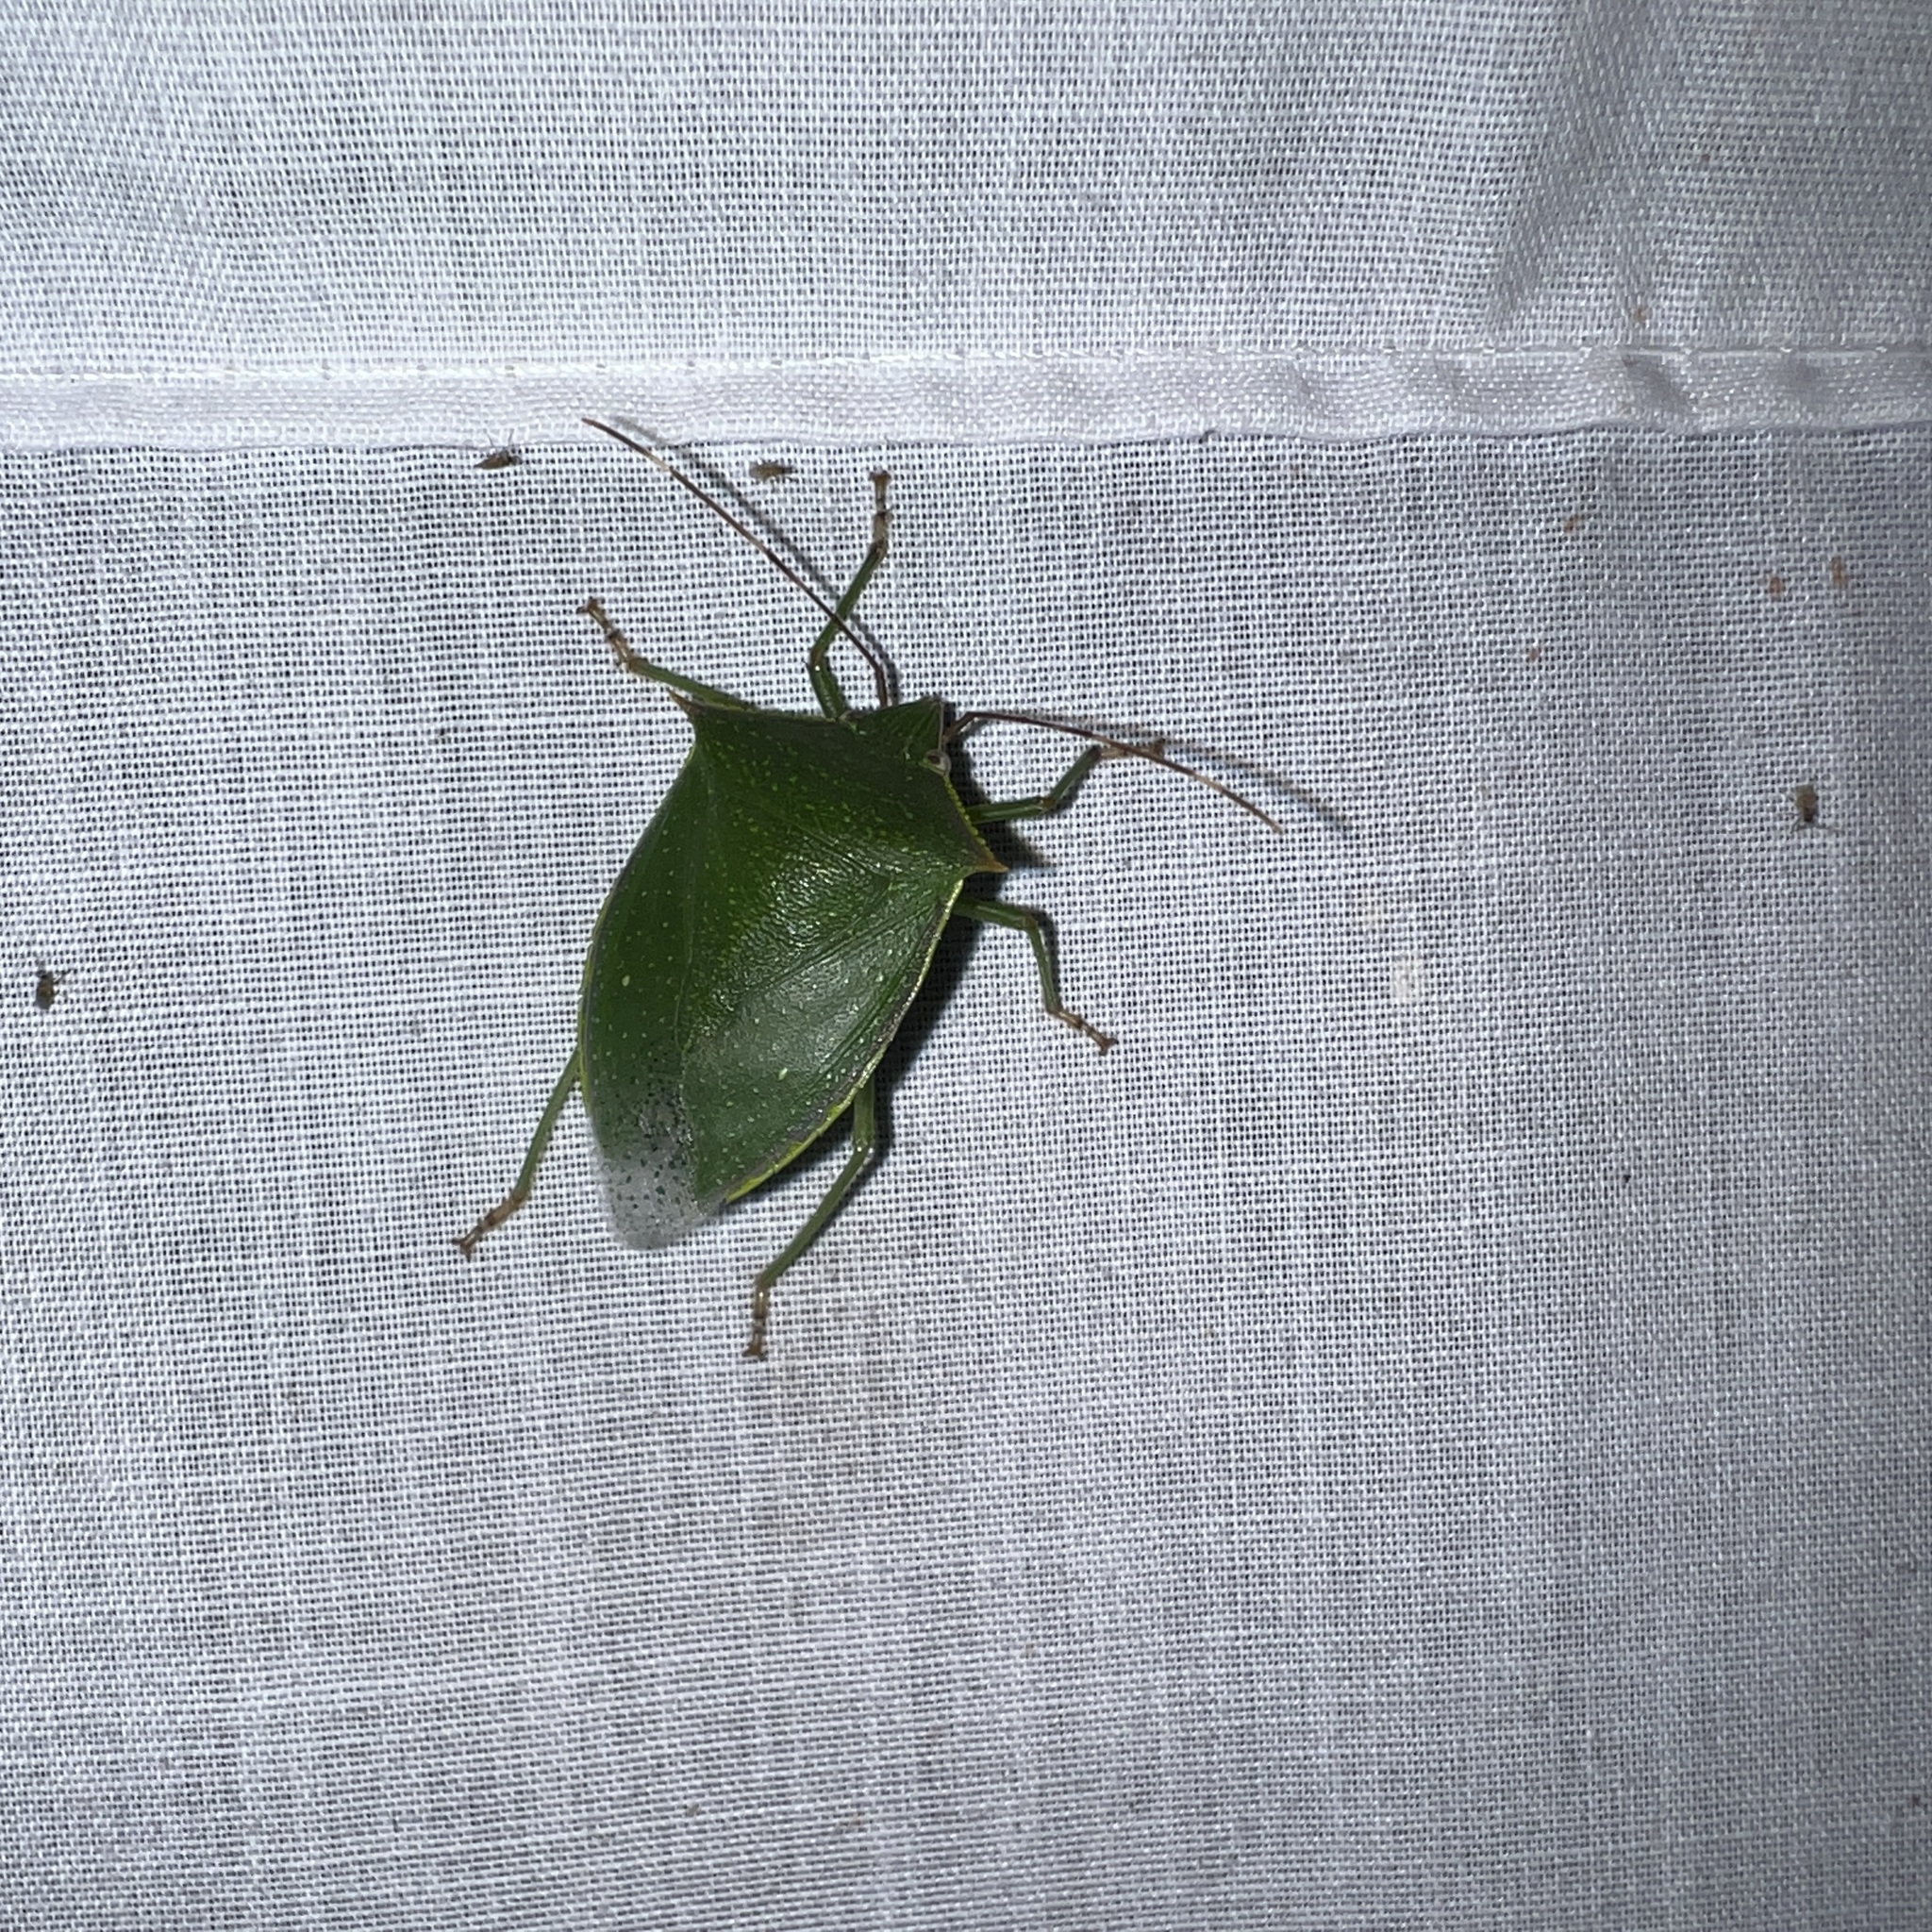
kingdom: Animalia
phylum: Arthropoda
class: Insecta
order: Hemiptera
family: Pentatomidae
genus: Loxa
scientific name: Loxa viridis
